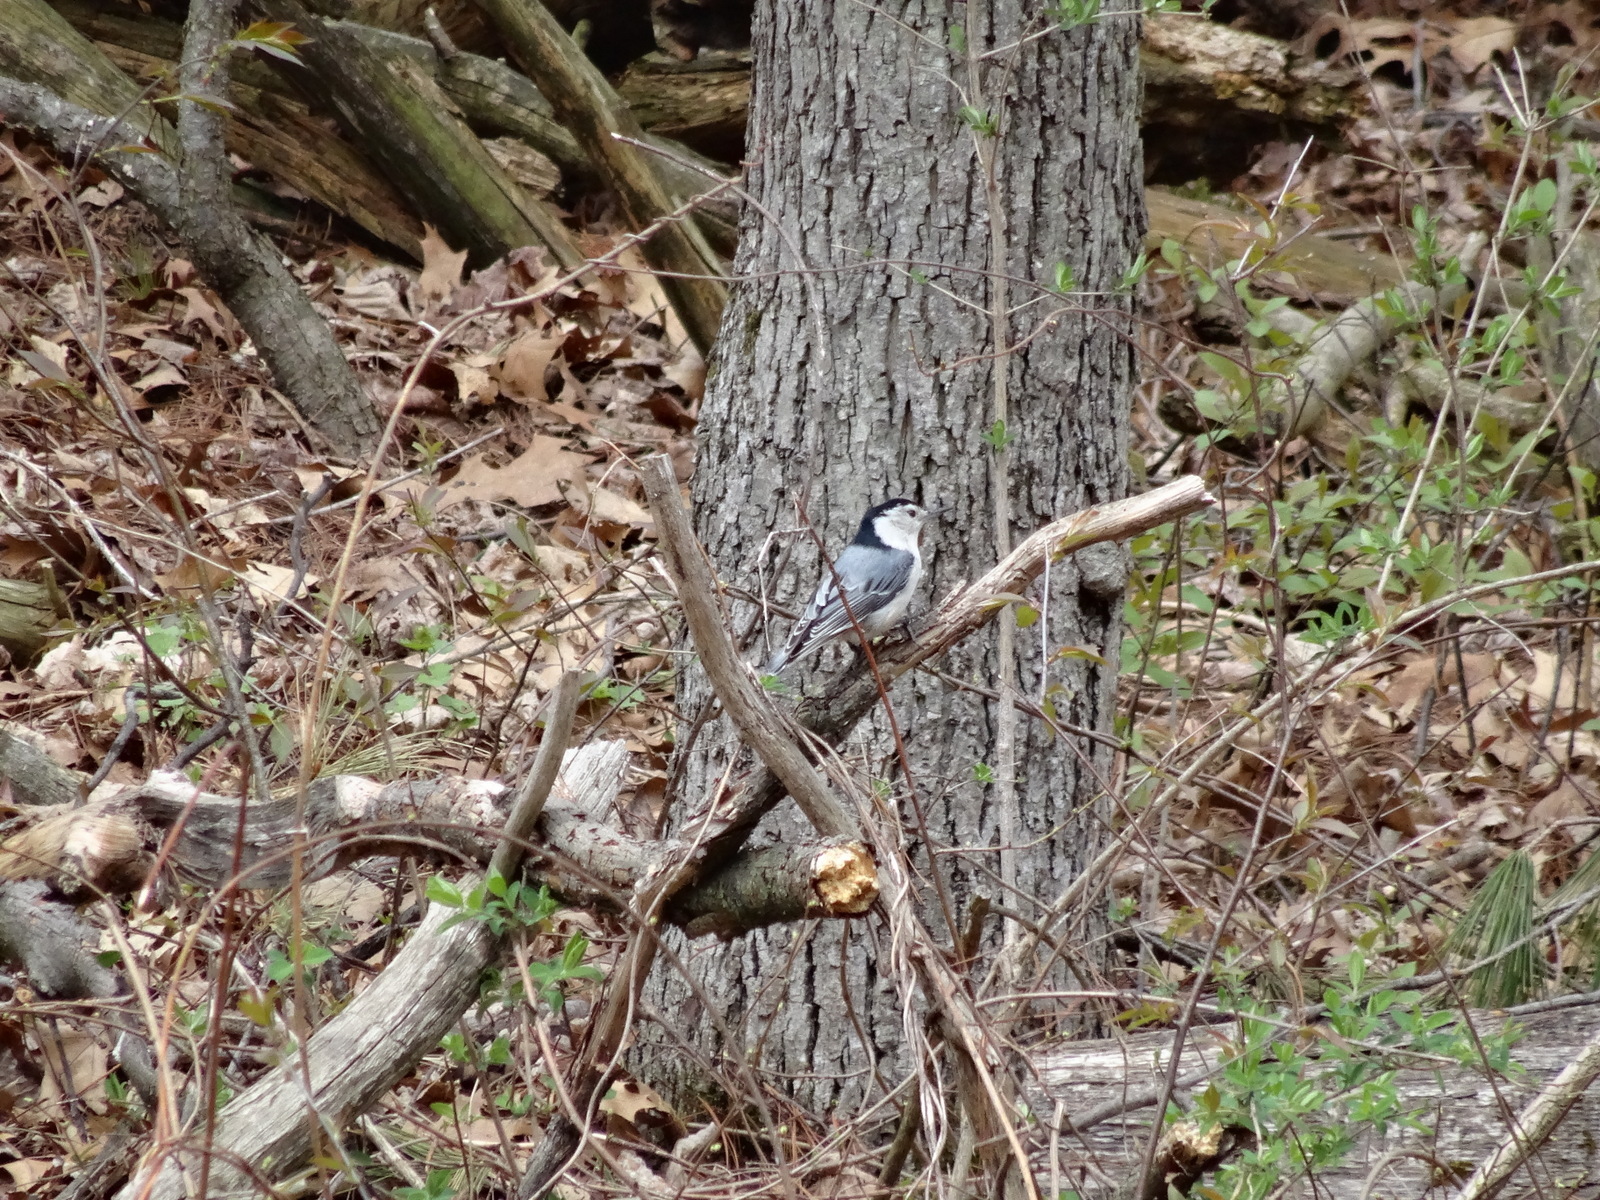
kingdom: Animalia
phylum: Chordata
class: Aves
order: Passeriformes
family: Sittidae
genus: Sitta
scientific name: Sitta carolinensis
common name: White-breasted nuthatch
